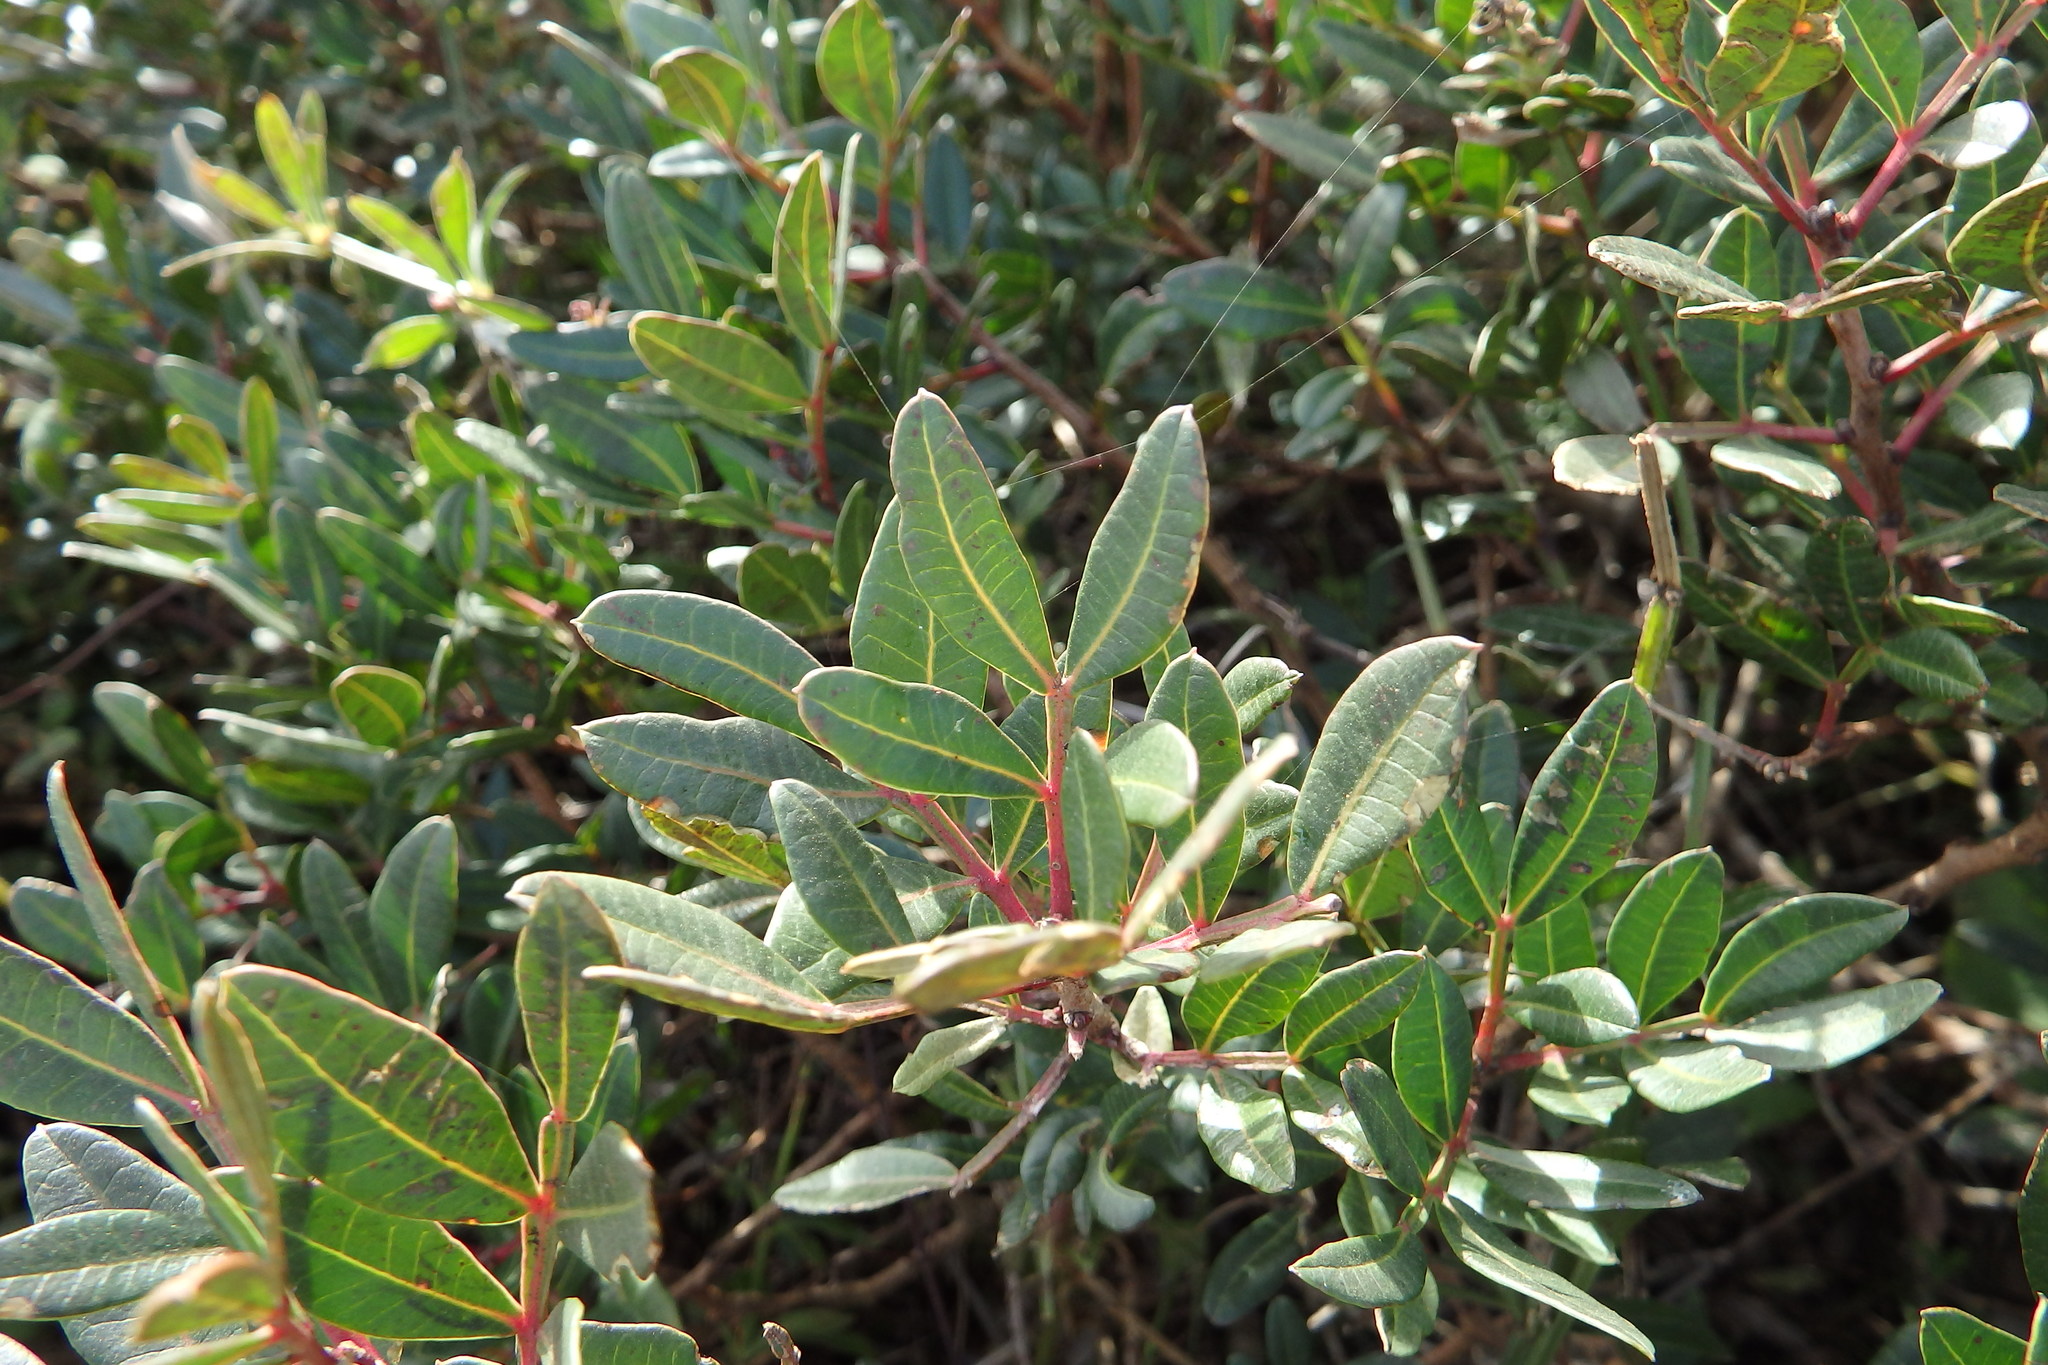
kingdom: Plantae
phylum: Tracheophyta
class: Magnoliopsida
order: Sapindales
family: Anacardiaceae
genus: Pistacia
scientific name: Pistacia lentiscus
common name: Lentisk
